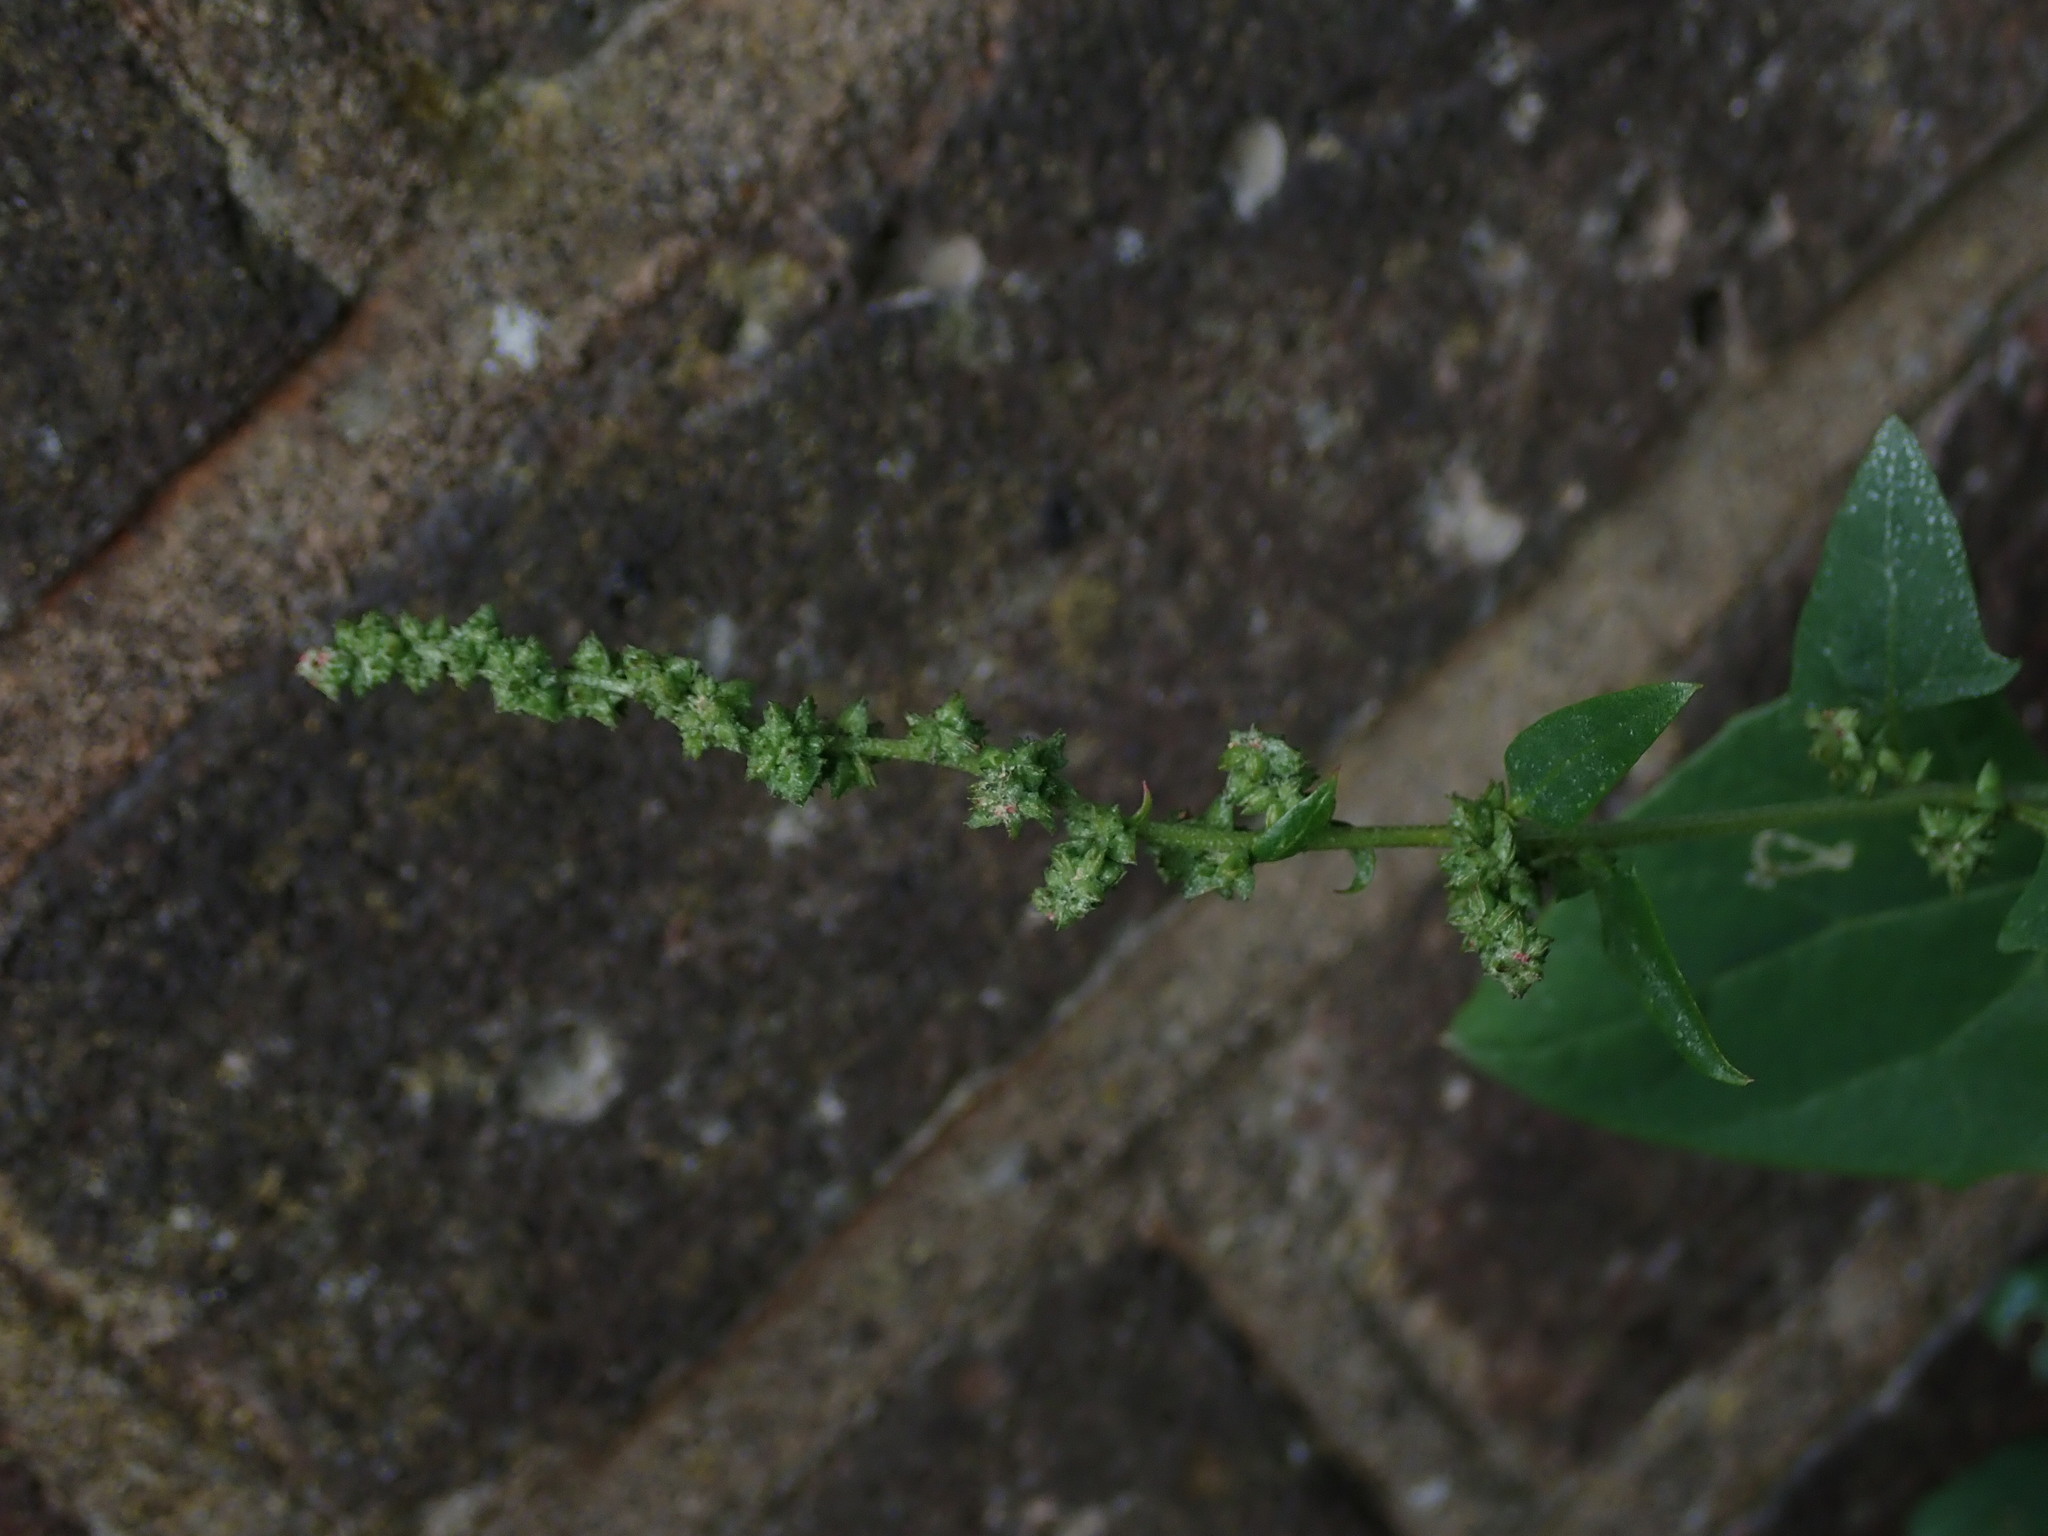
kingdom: Plantae
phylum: Tracheophyta
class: Magnoliopsida
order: Caryophyllales
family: Amaranthaceae
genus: Atriplex
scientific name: Atriplex prostrata
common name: Spear-leaved orache
